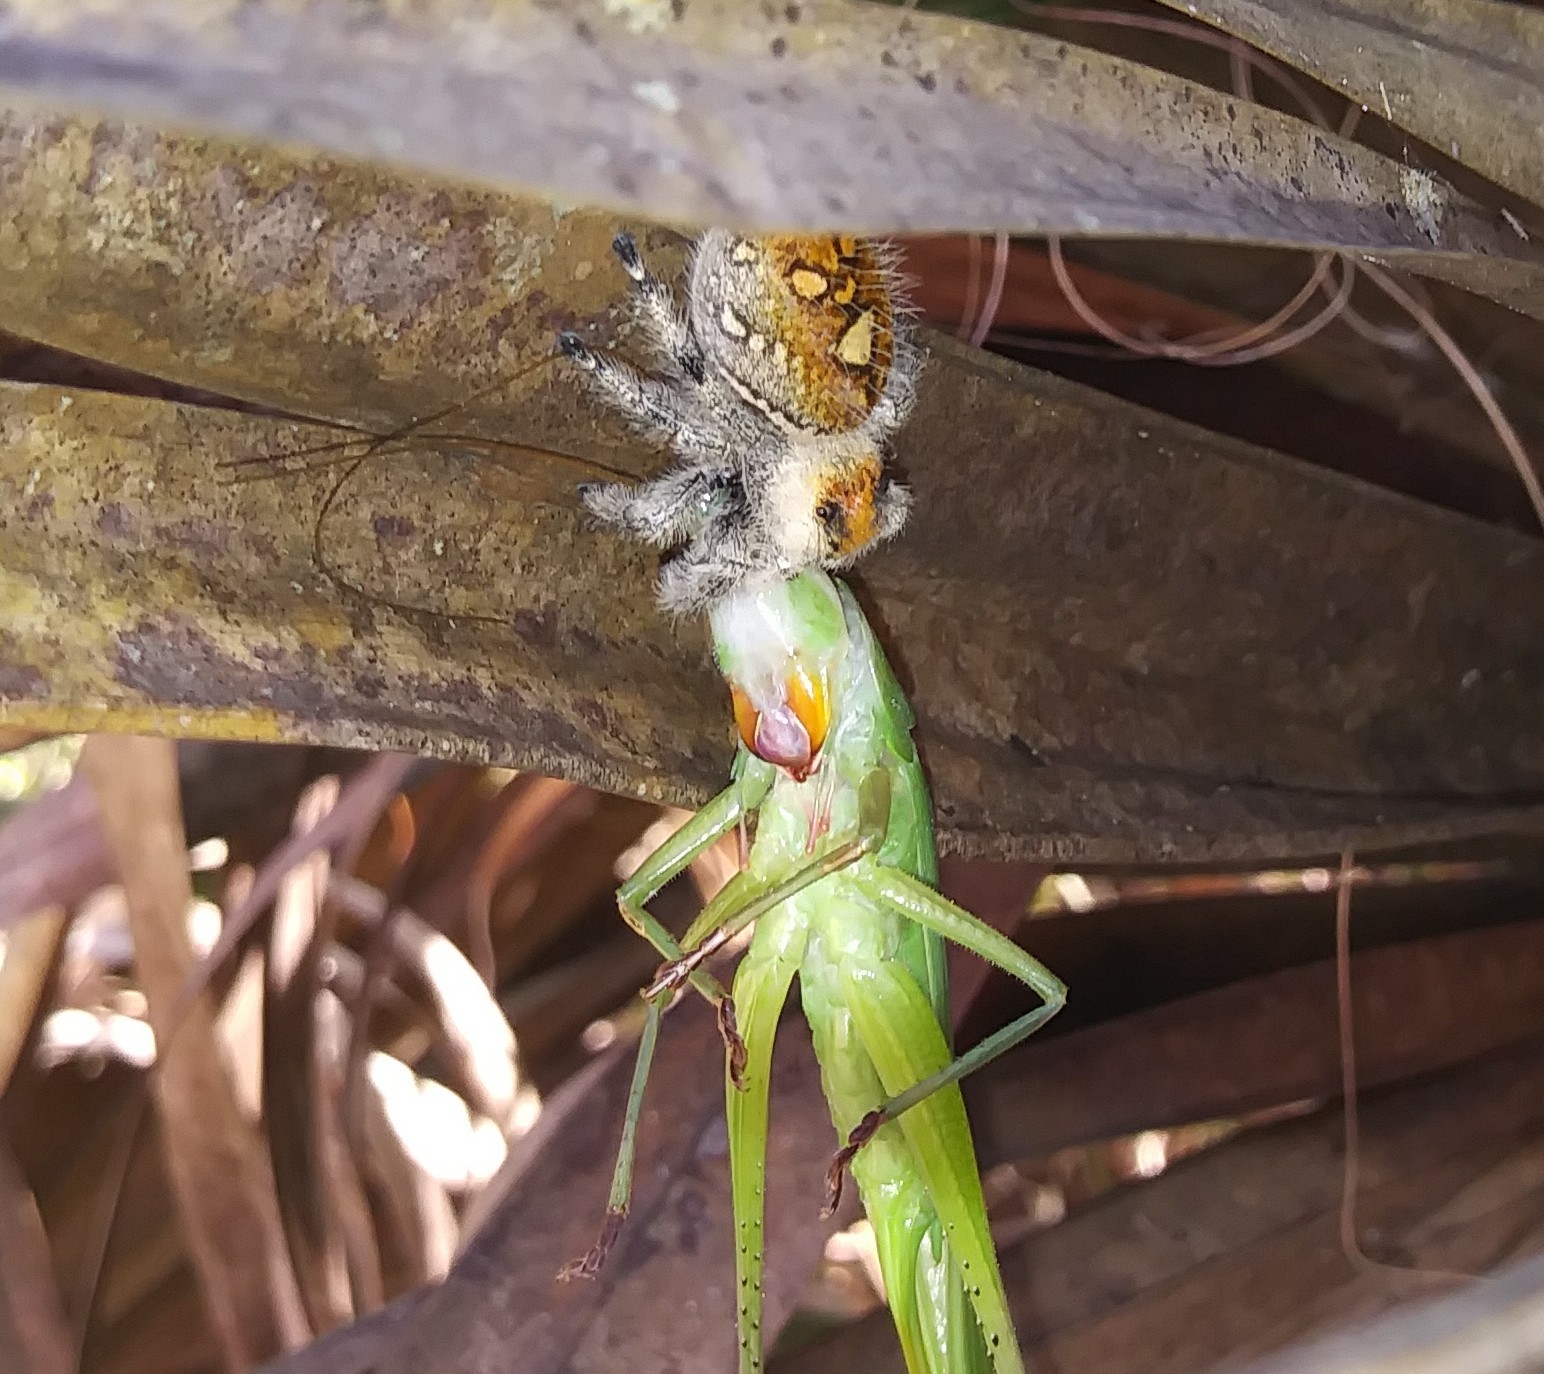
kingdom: Animalia
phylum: Arthropoda
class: Arachnida
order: Araneae
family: Salticidae
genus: Phidippus
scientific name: Phidippus regius
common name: Regal jumper
